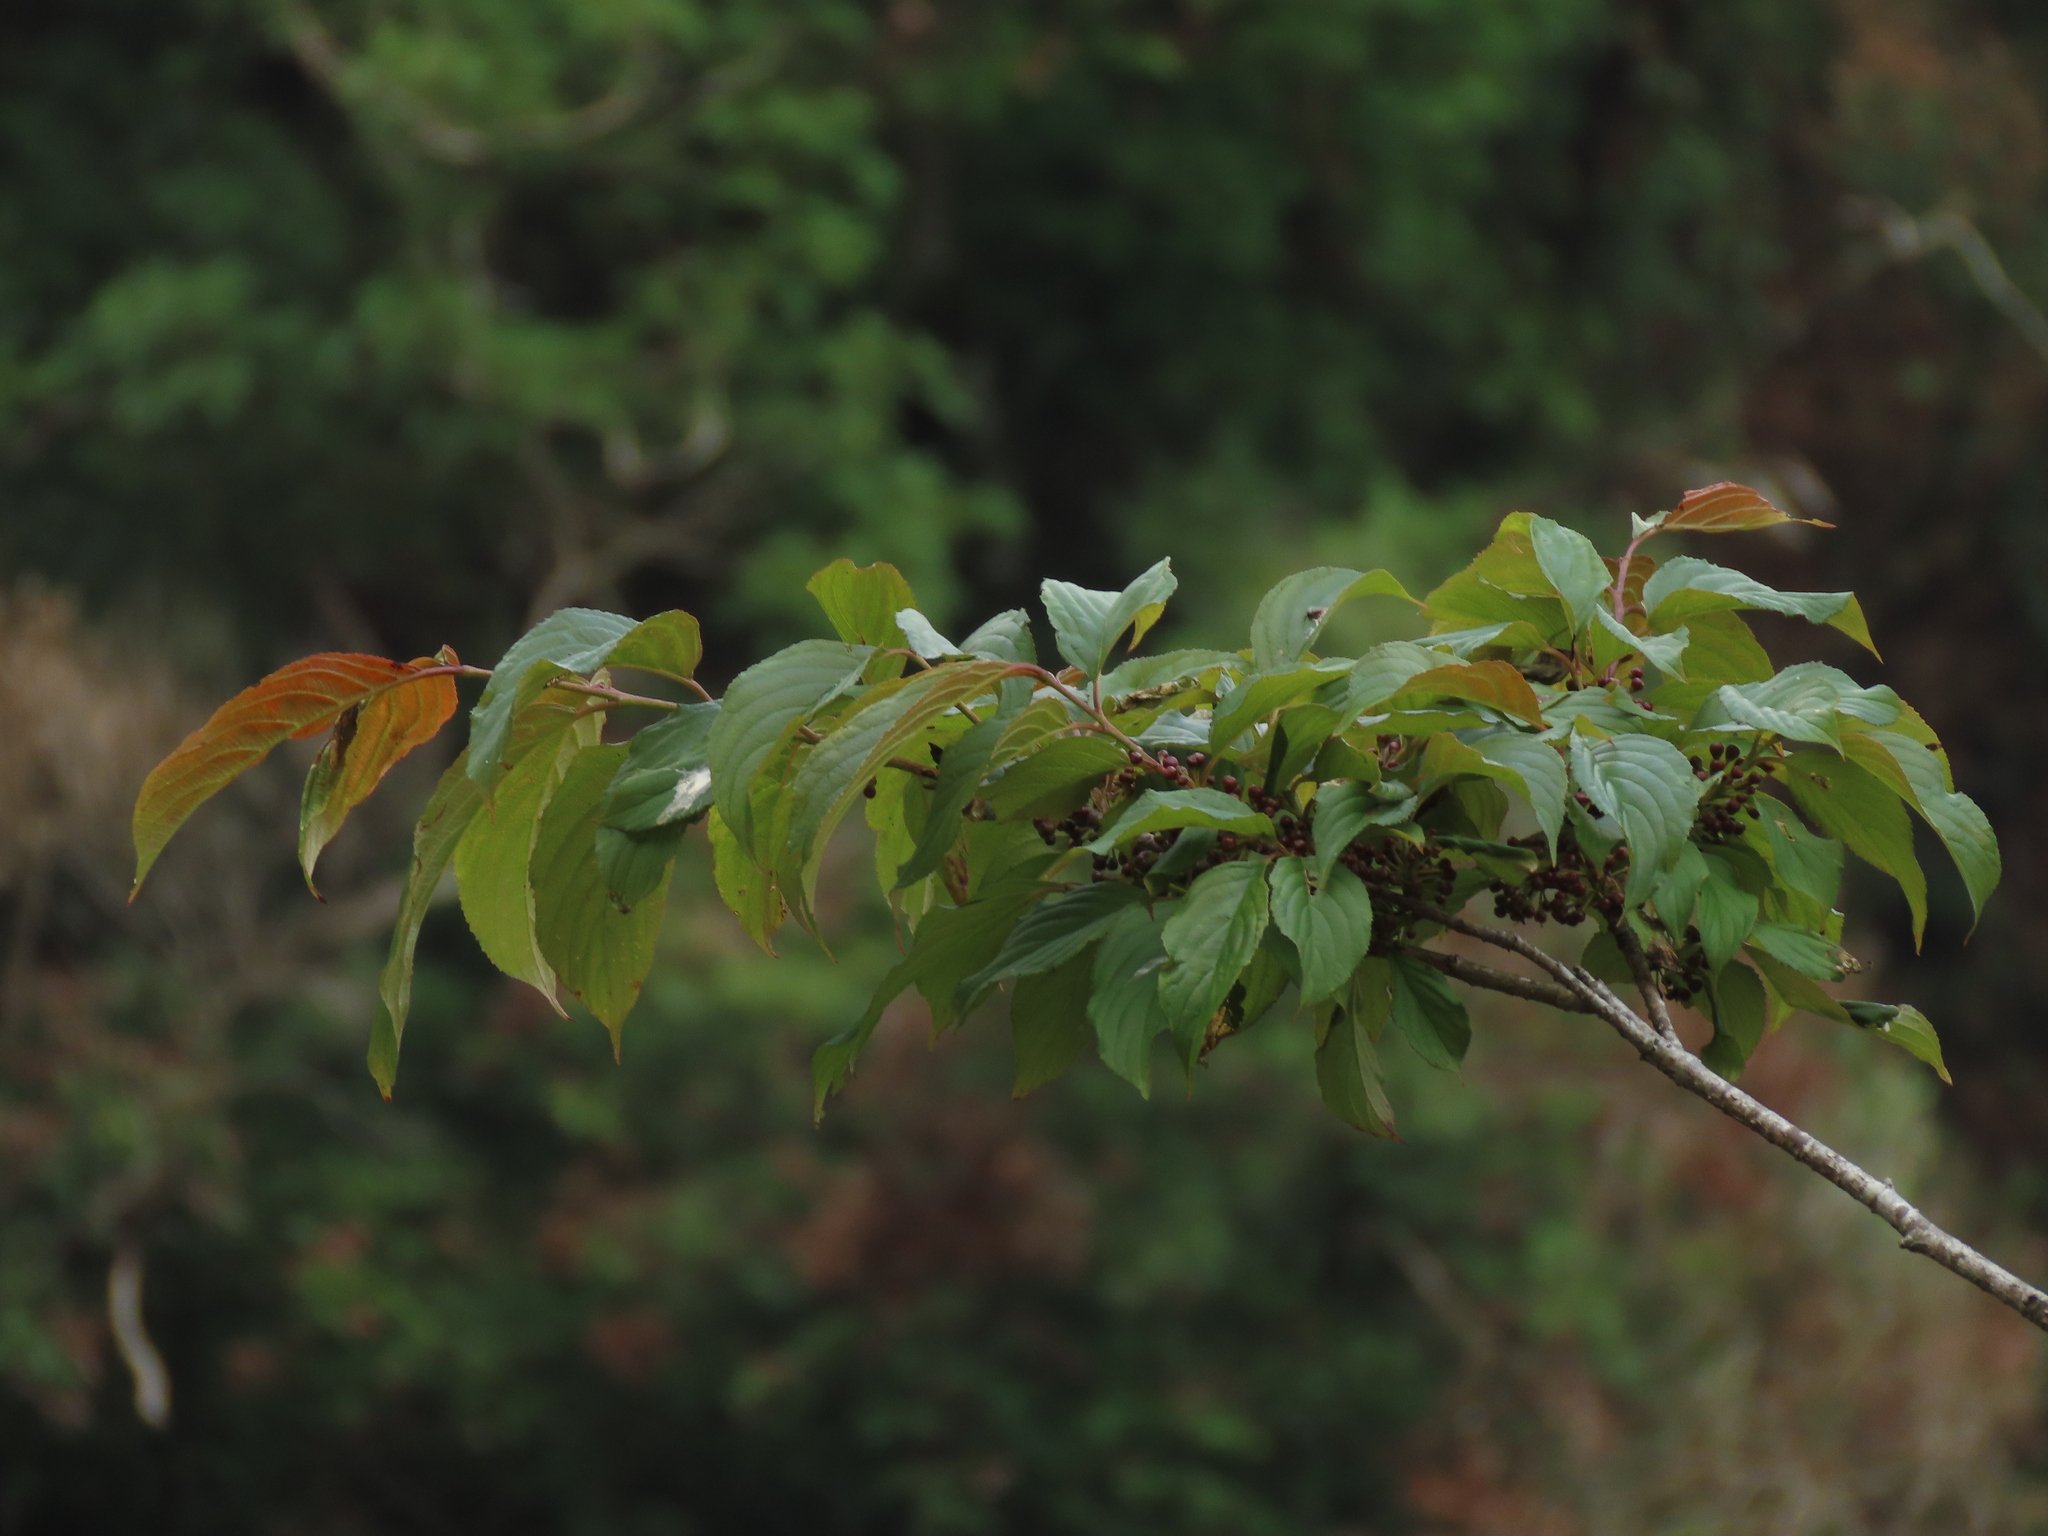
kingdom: Plantae
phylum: Tracheophyta
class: Magnoliopsida
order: Rosales
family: Rhamnaceae
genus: Rhamnus
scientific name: Rhamnus formosana
